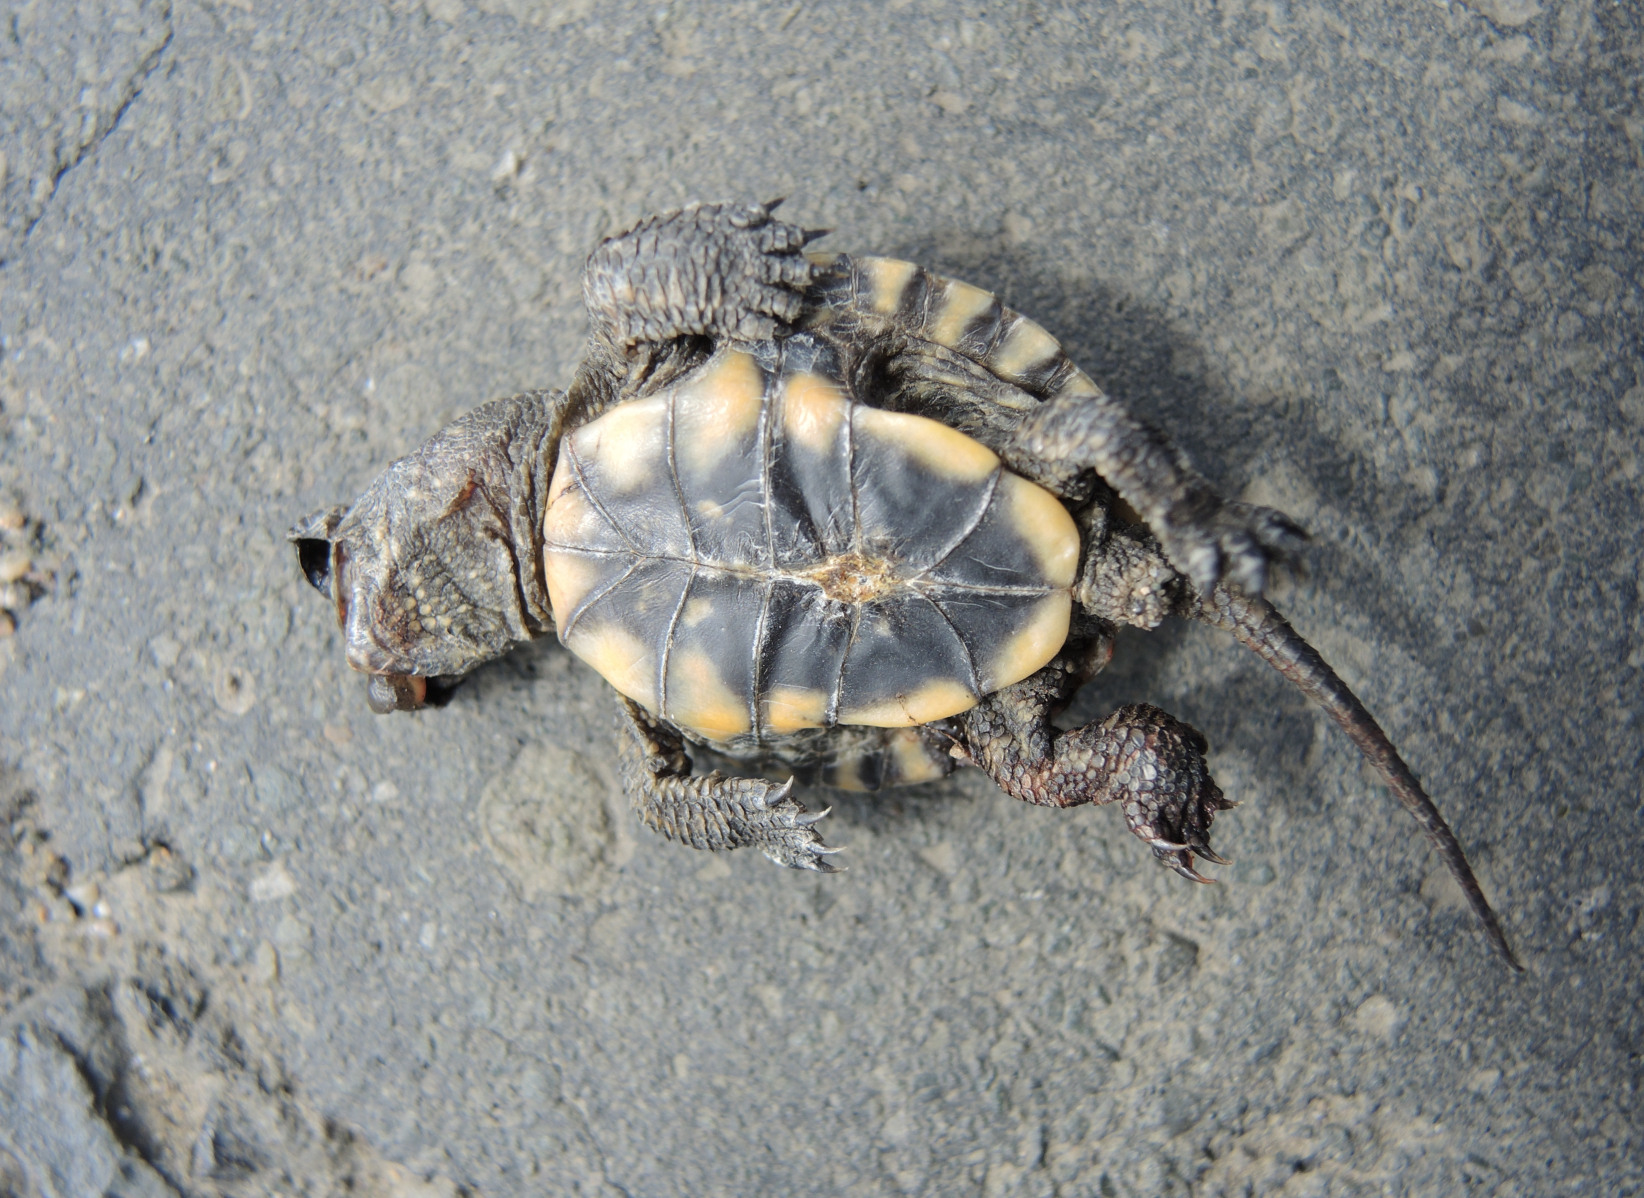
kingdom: Animalia
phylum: Chordata
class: Testudines
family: Emydidae
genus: Emys
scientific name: Emys orbicularis
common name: European pond turtle
